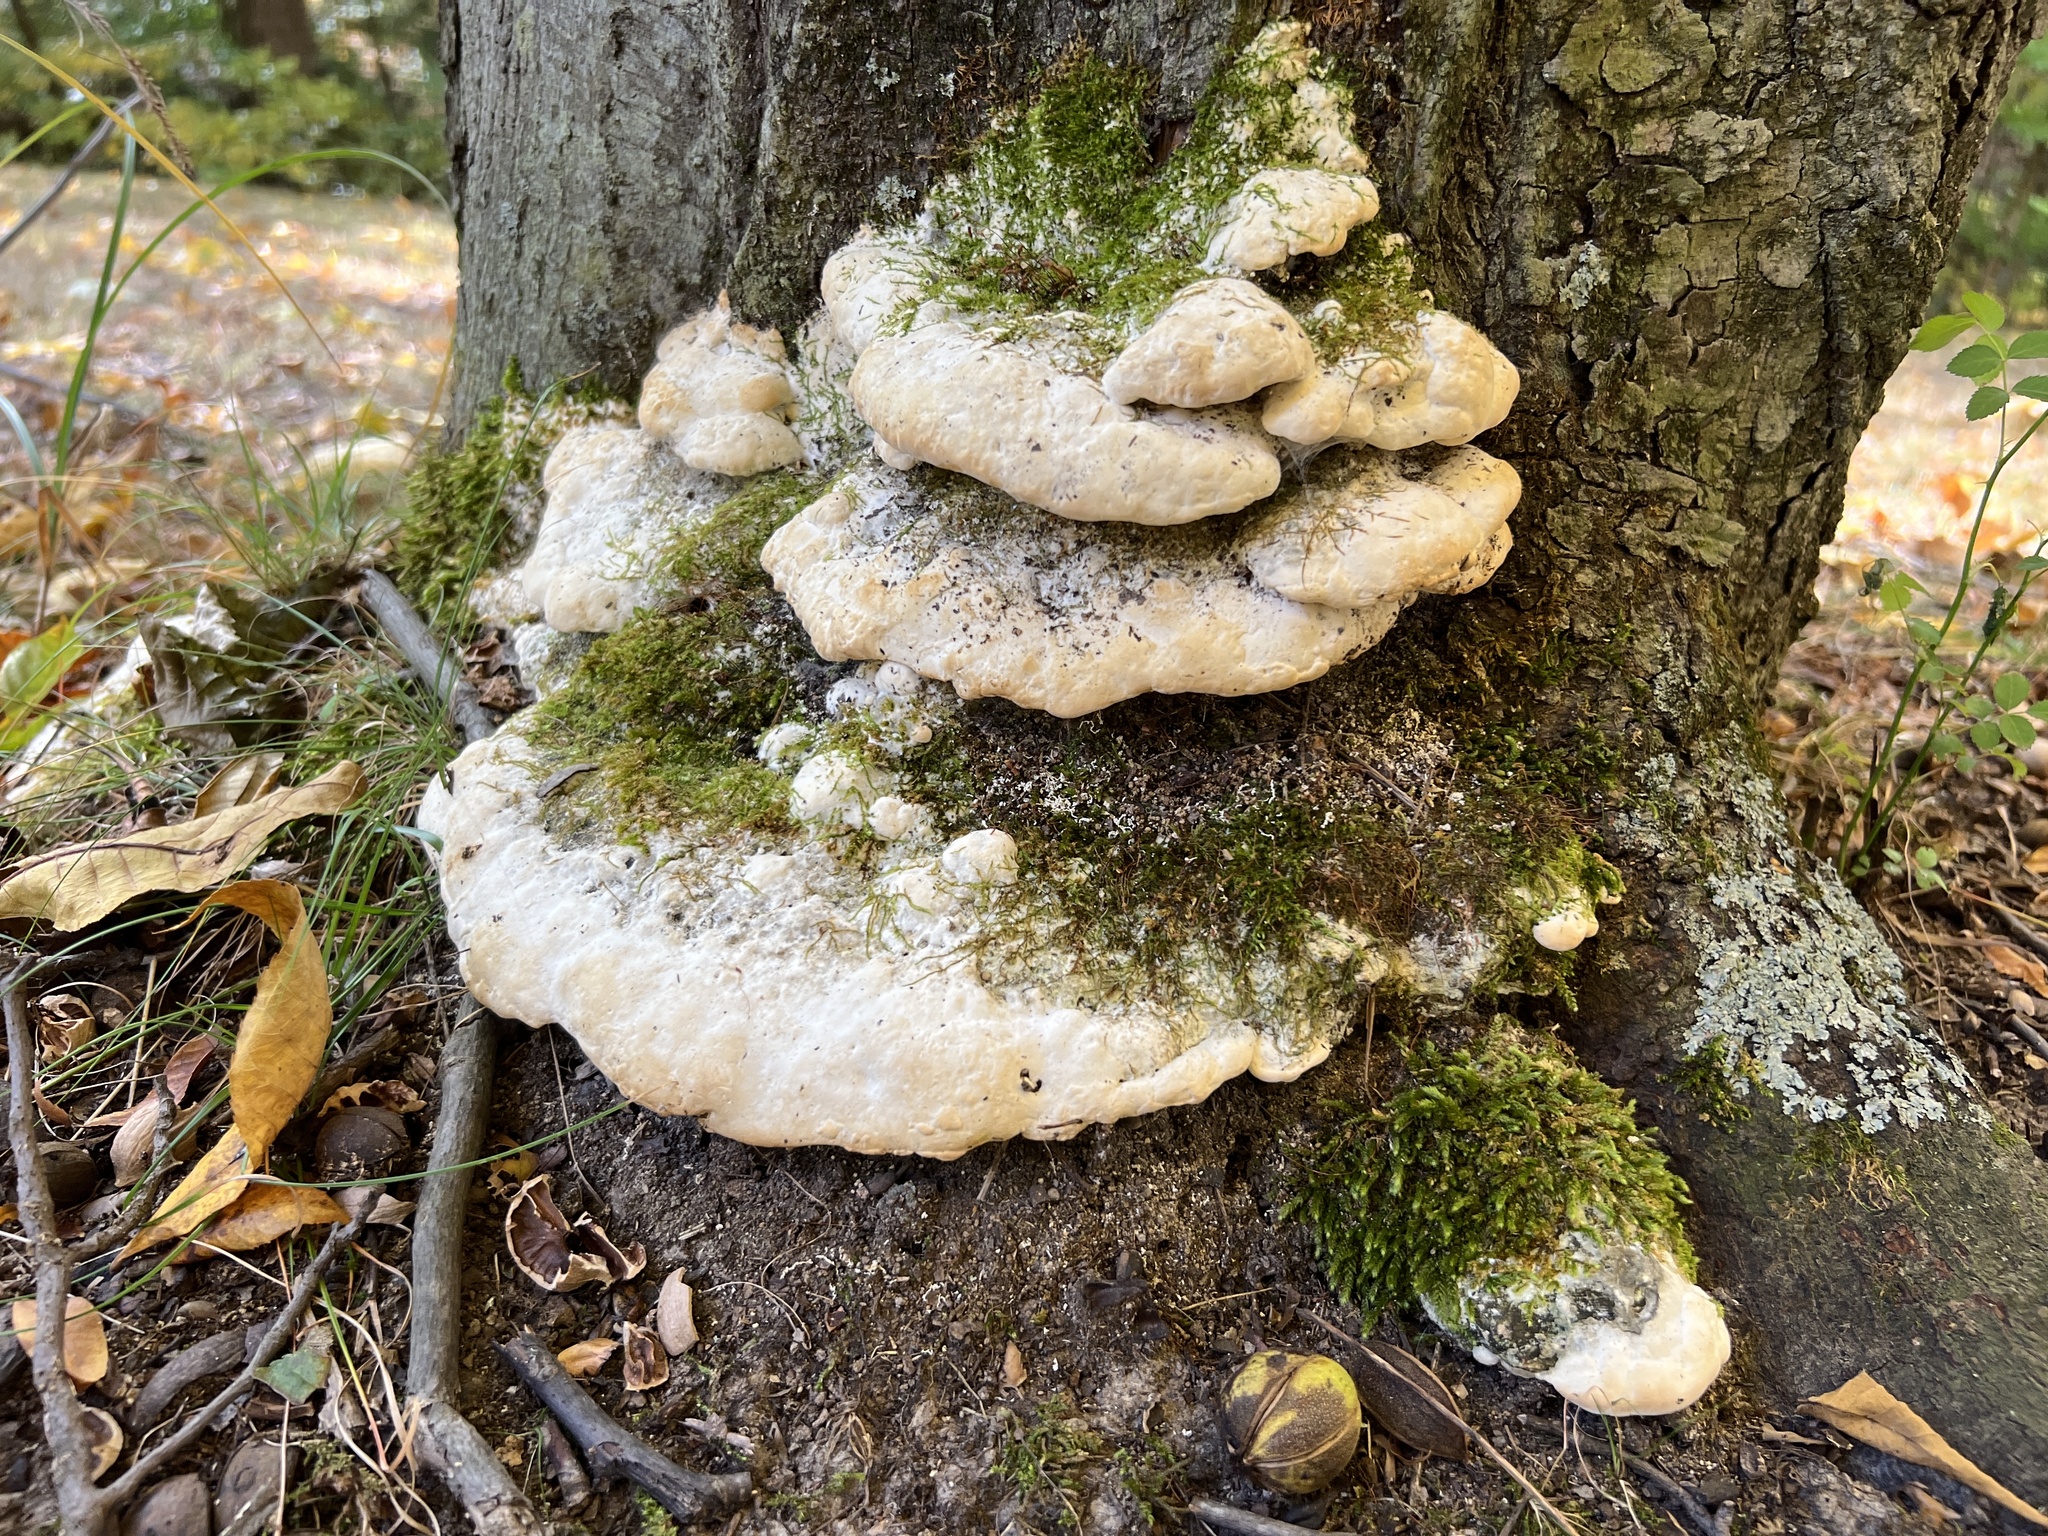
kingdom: Fungi
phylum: Basidiomycota
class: Agaricomycetes
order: Hymenochaetales
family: Oxyporaceae
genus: Oxyporus
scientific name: Oxyporus populinus
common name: Poplar bracket
